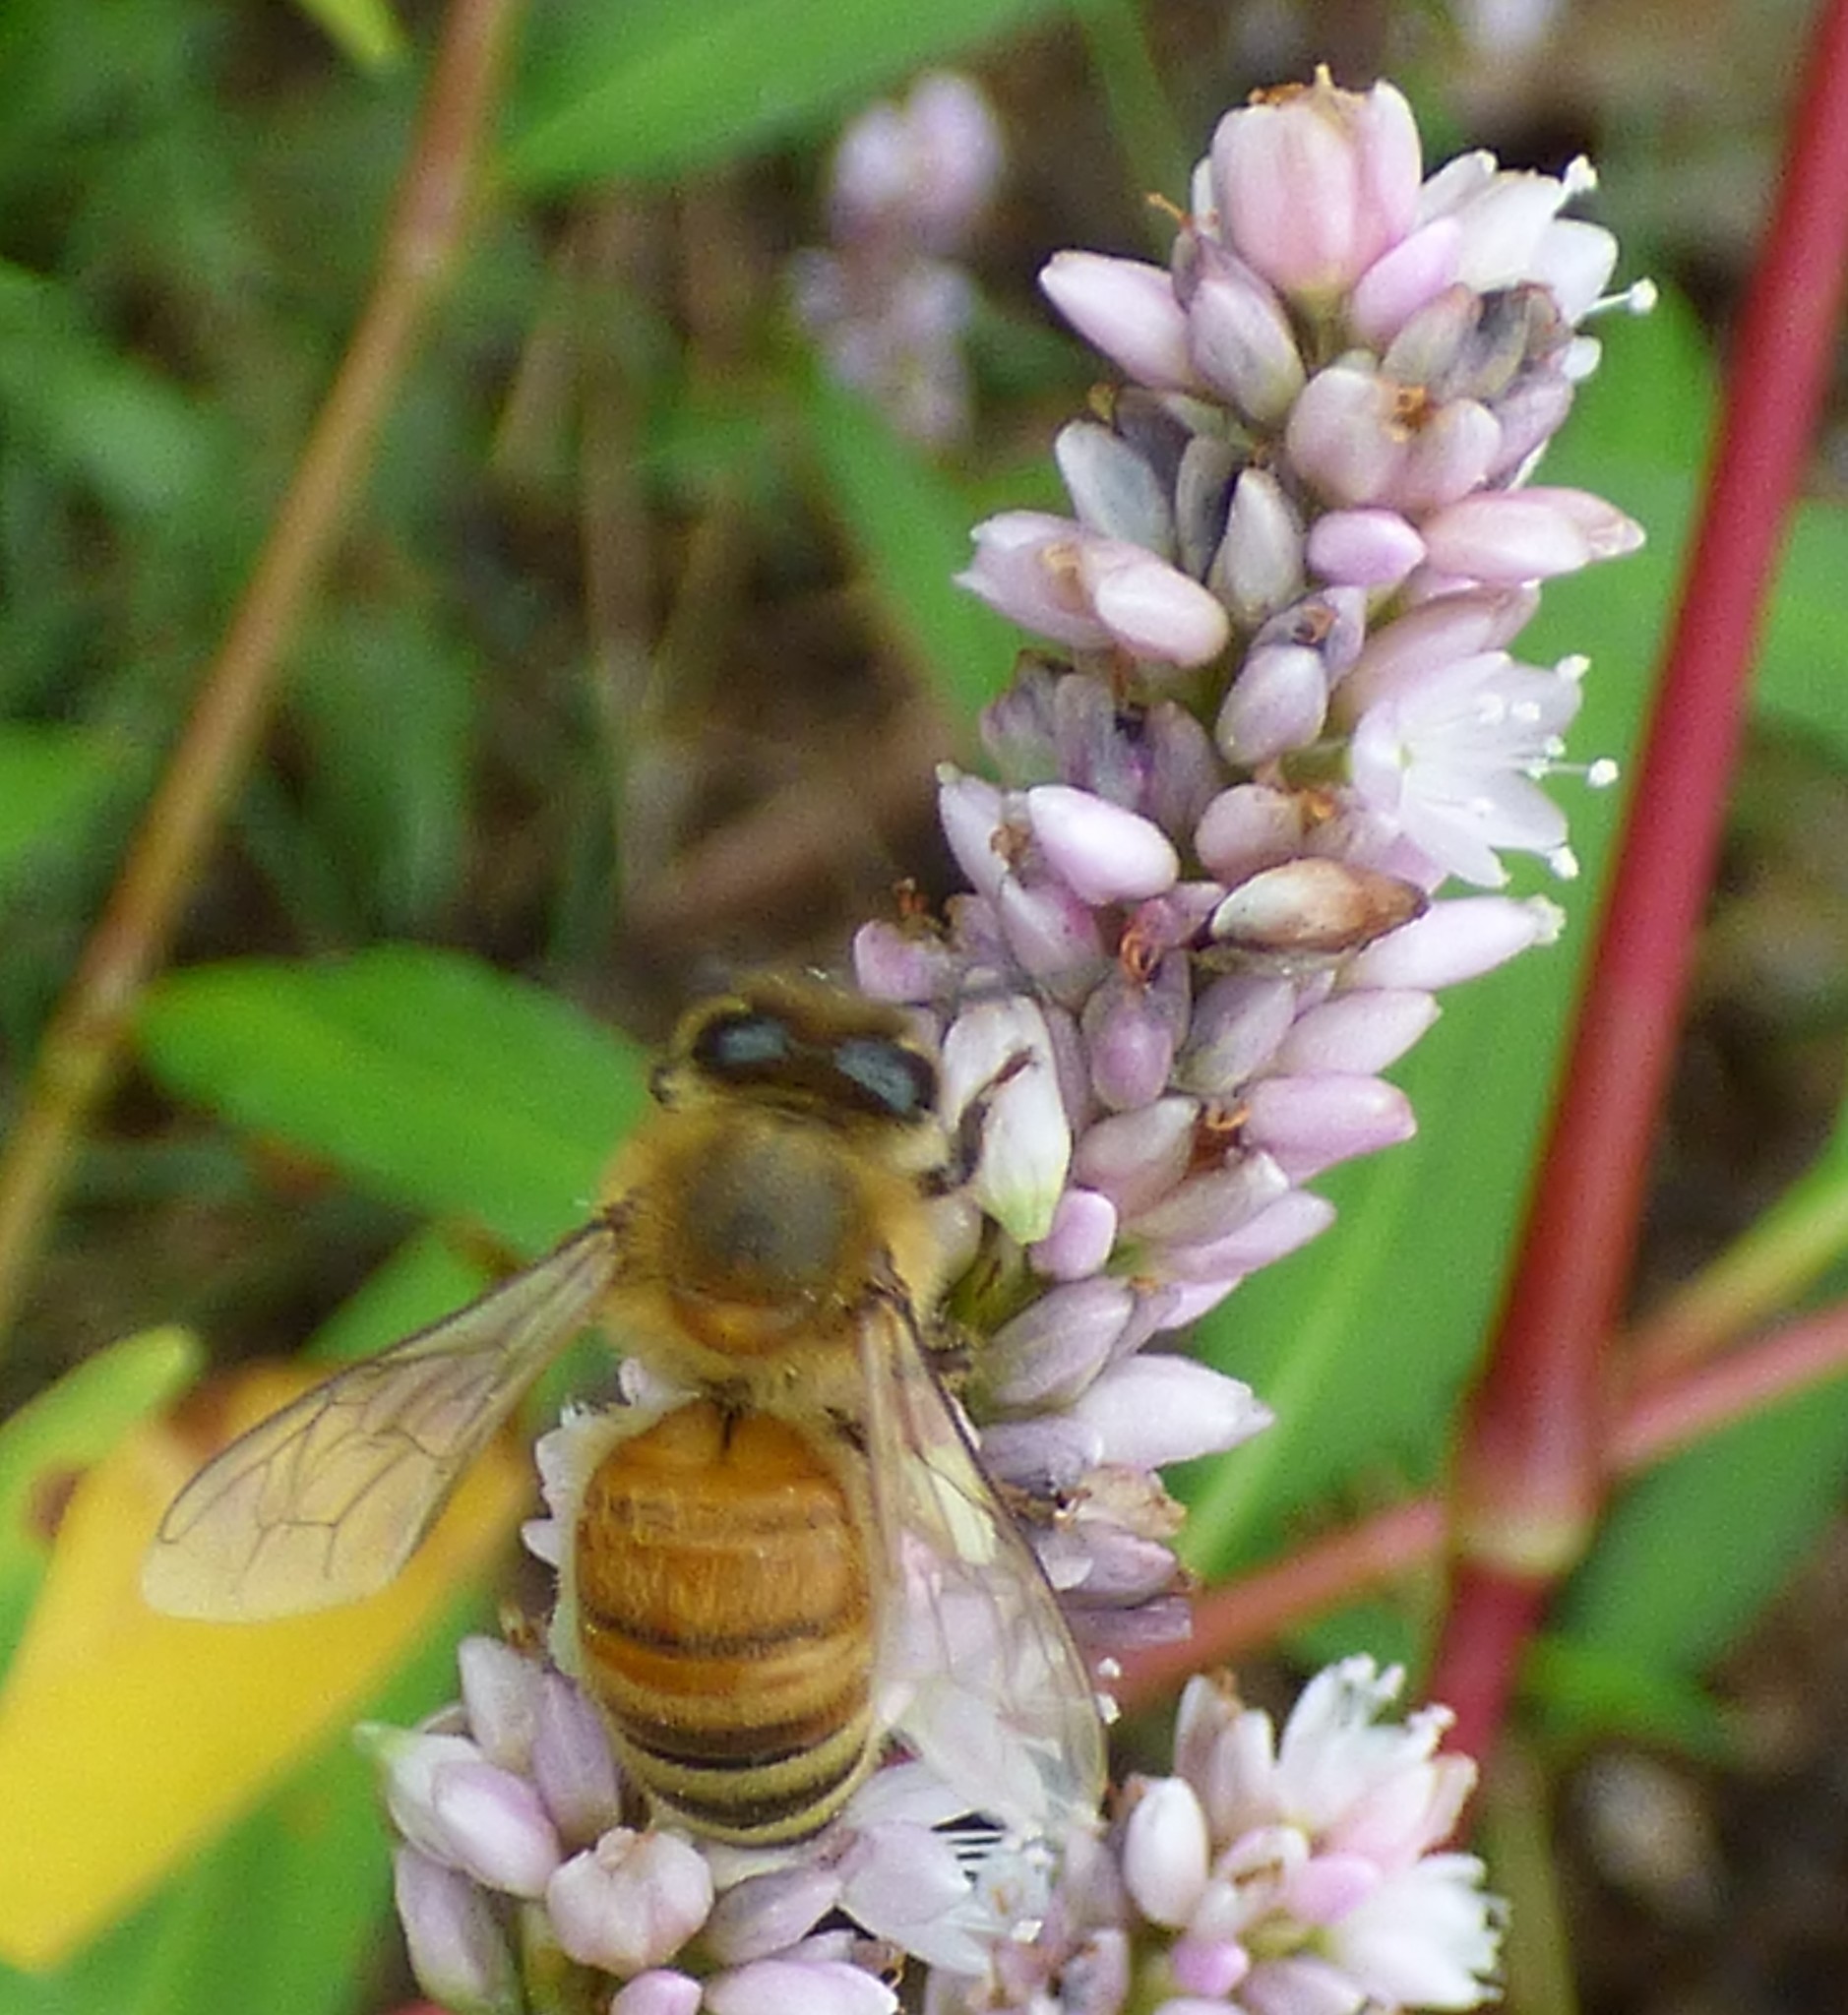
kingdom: Animalia
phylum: Arthropoda
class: Insecta
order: Hymenoptera
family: Apidae
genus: Apis
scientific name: Apis mellifera
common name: Honey bee
